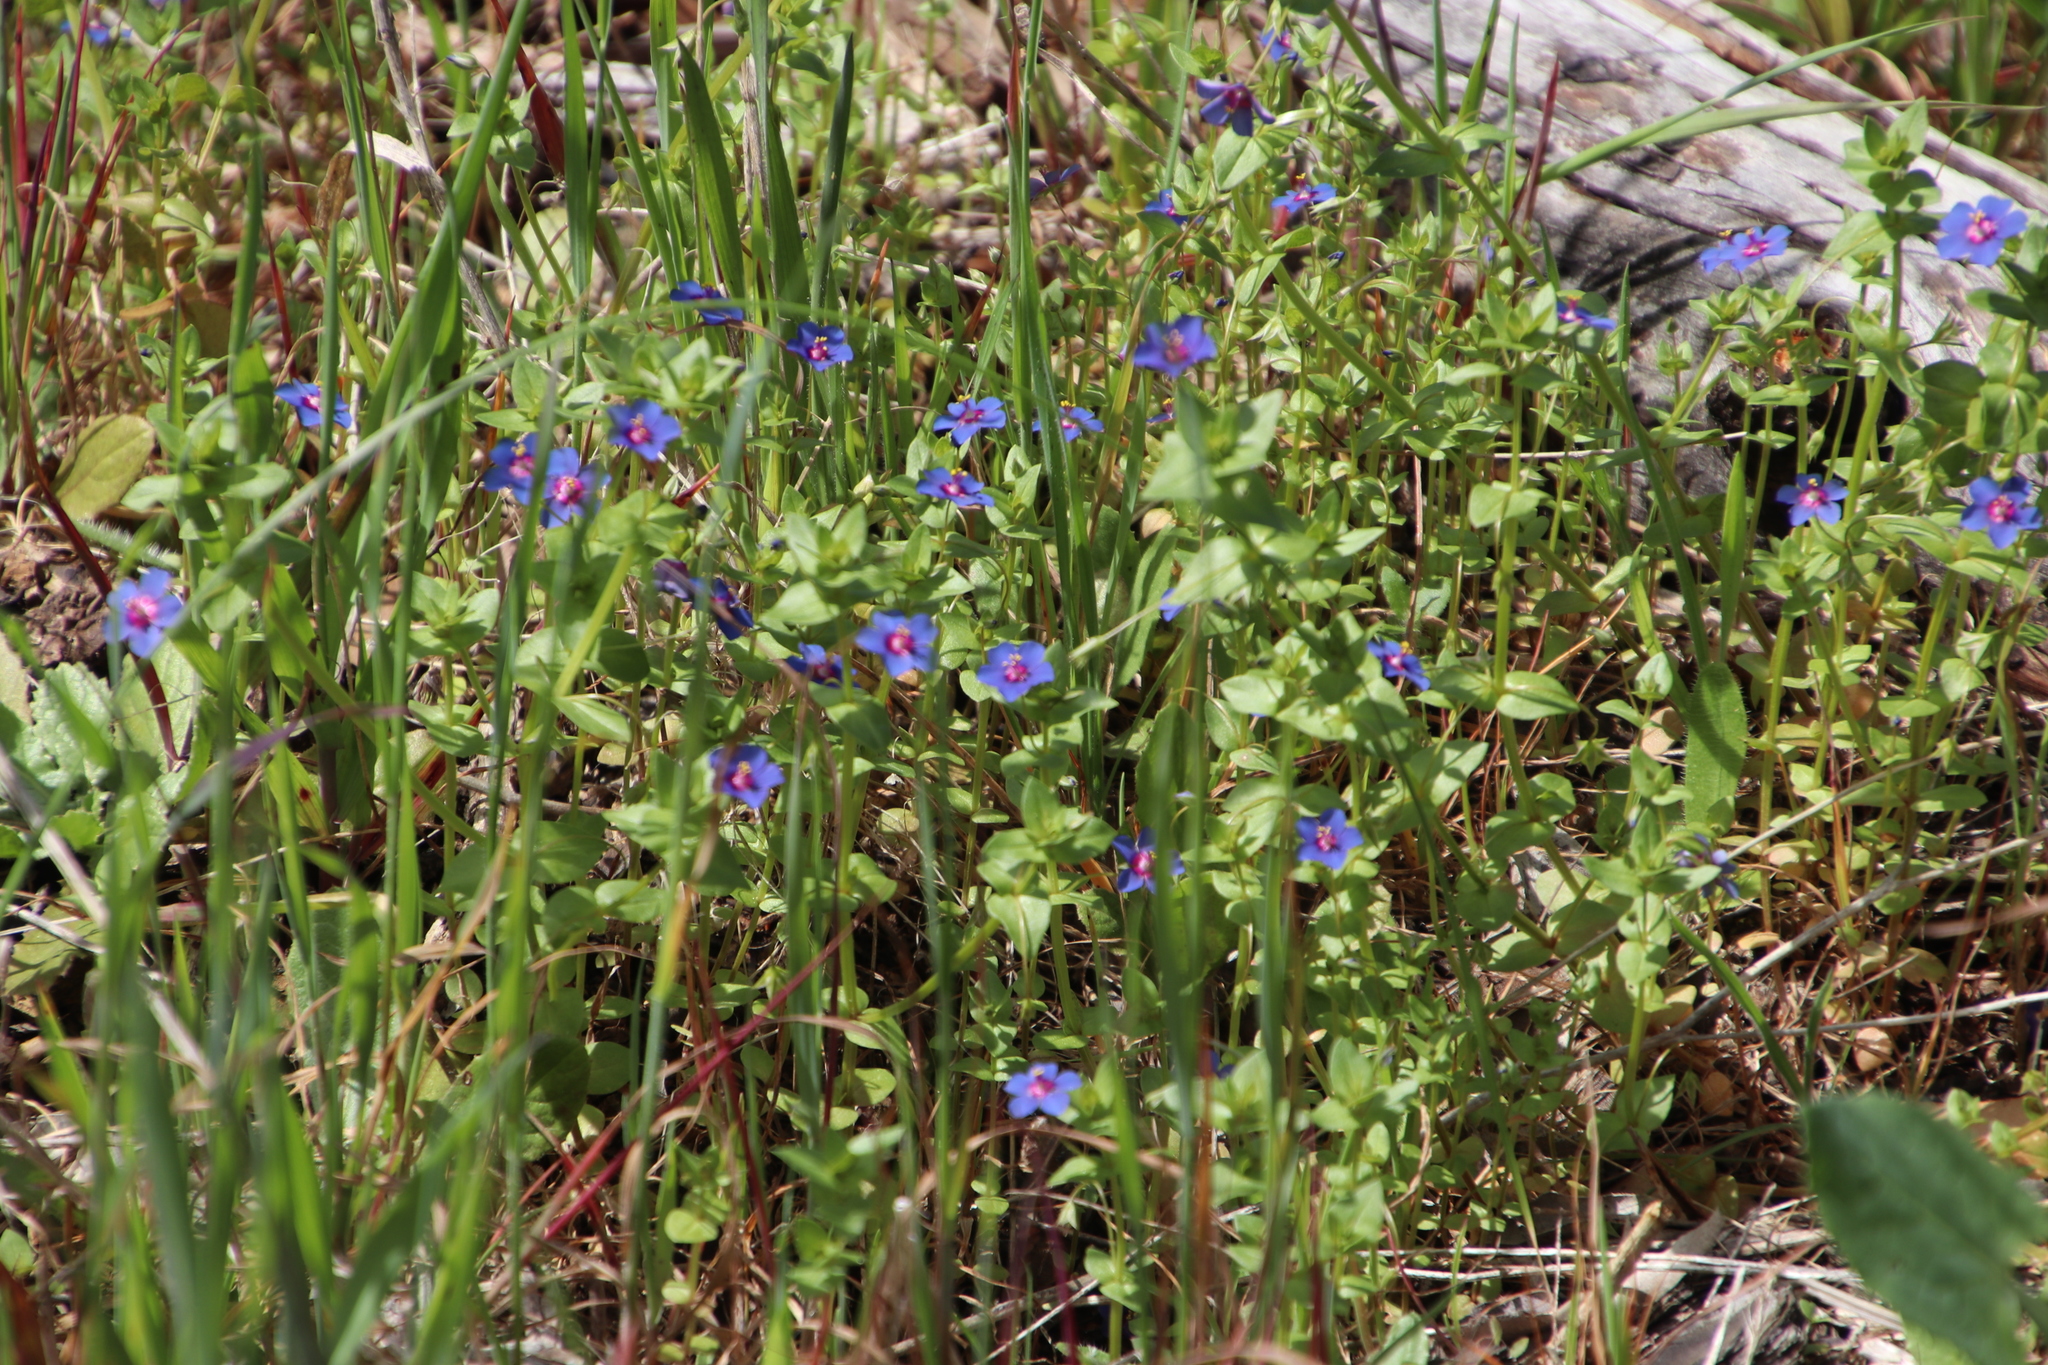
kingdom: Plantae
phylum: Tracheophyta
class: Magnoliopsida
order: Ericales
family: Primulaceae
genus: Lysimachia
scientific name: Lysimachia loeflingii
